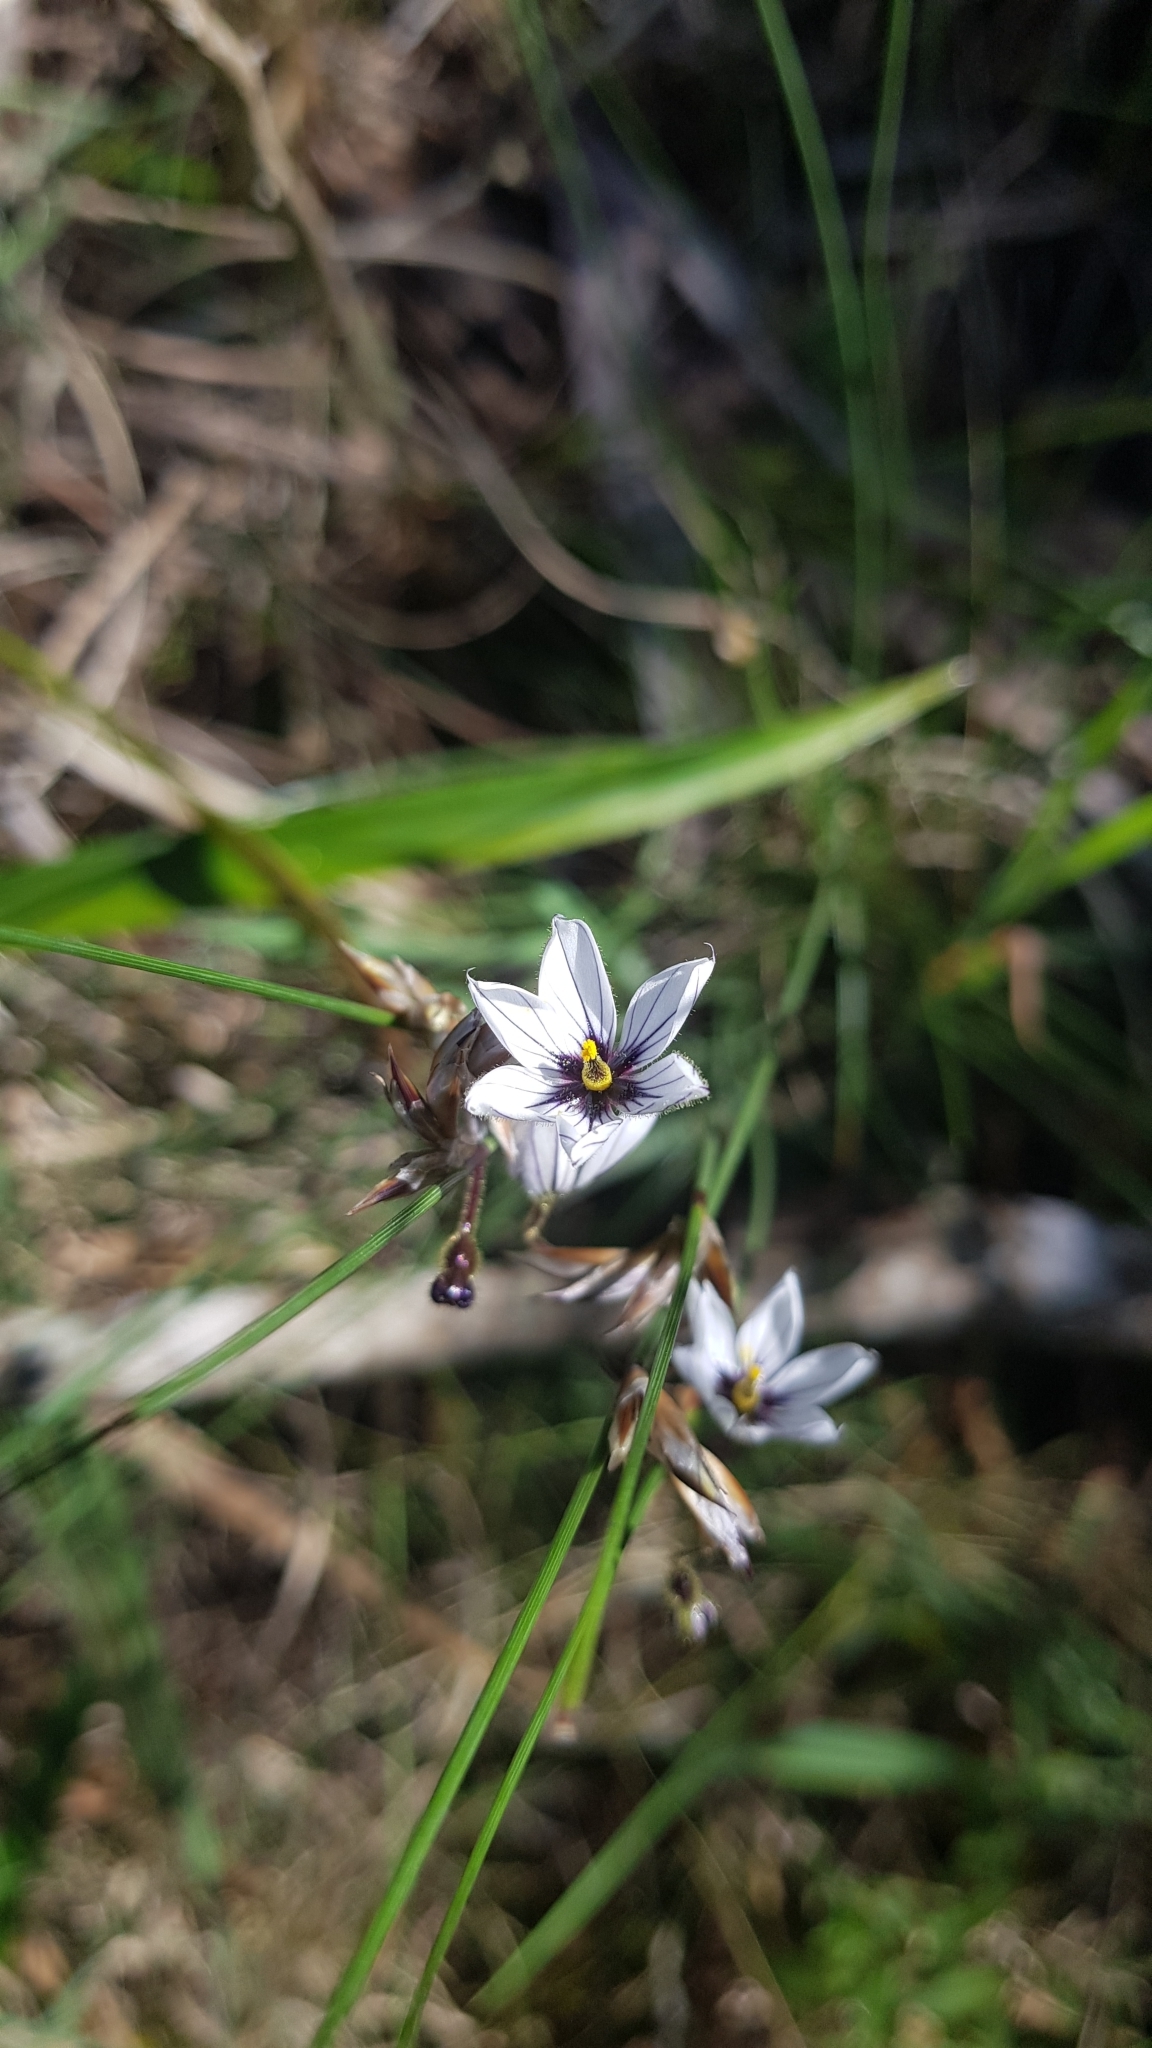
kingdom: Plantae
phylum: Tracheophyta
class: Liliopsida
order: Asparagales
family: Iridaceae
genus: Sisyrinchium
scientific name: Sisyrinchium scariosum
